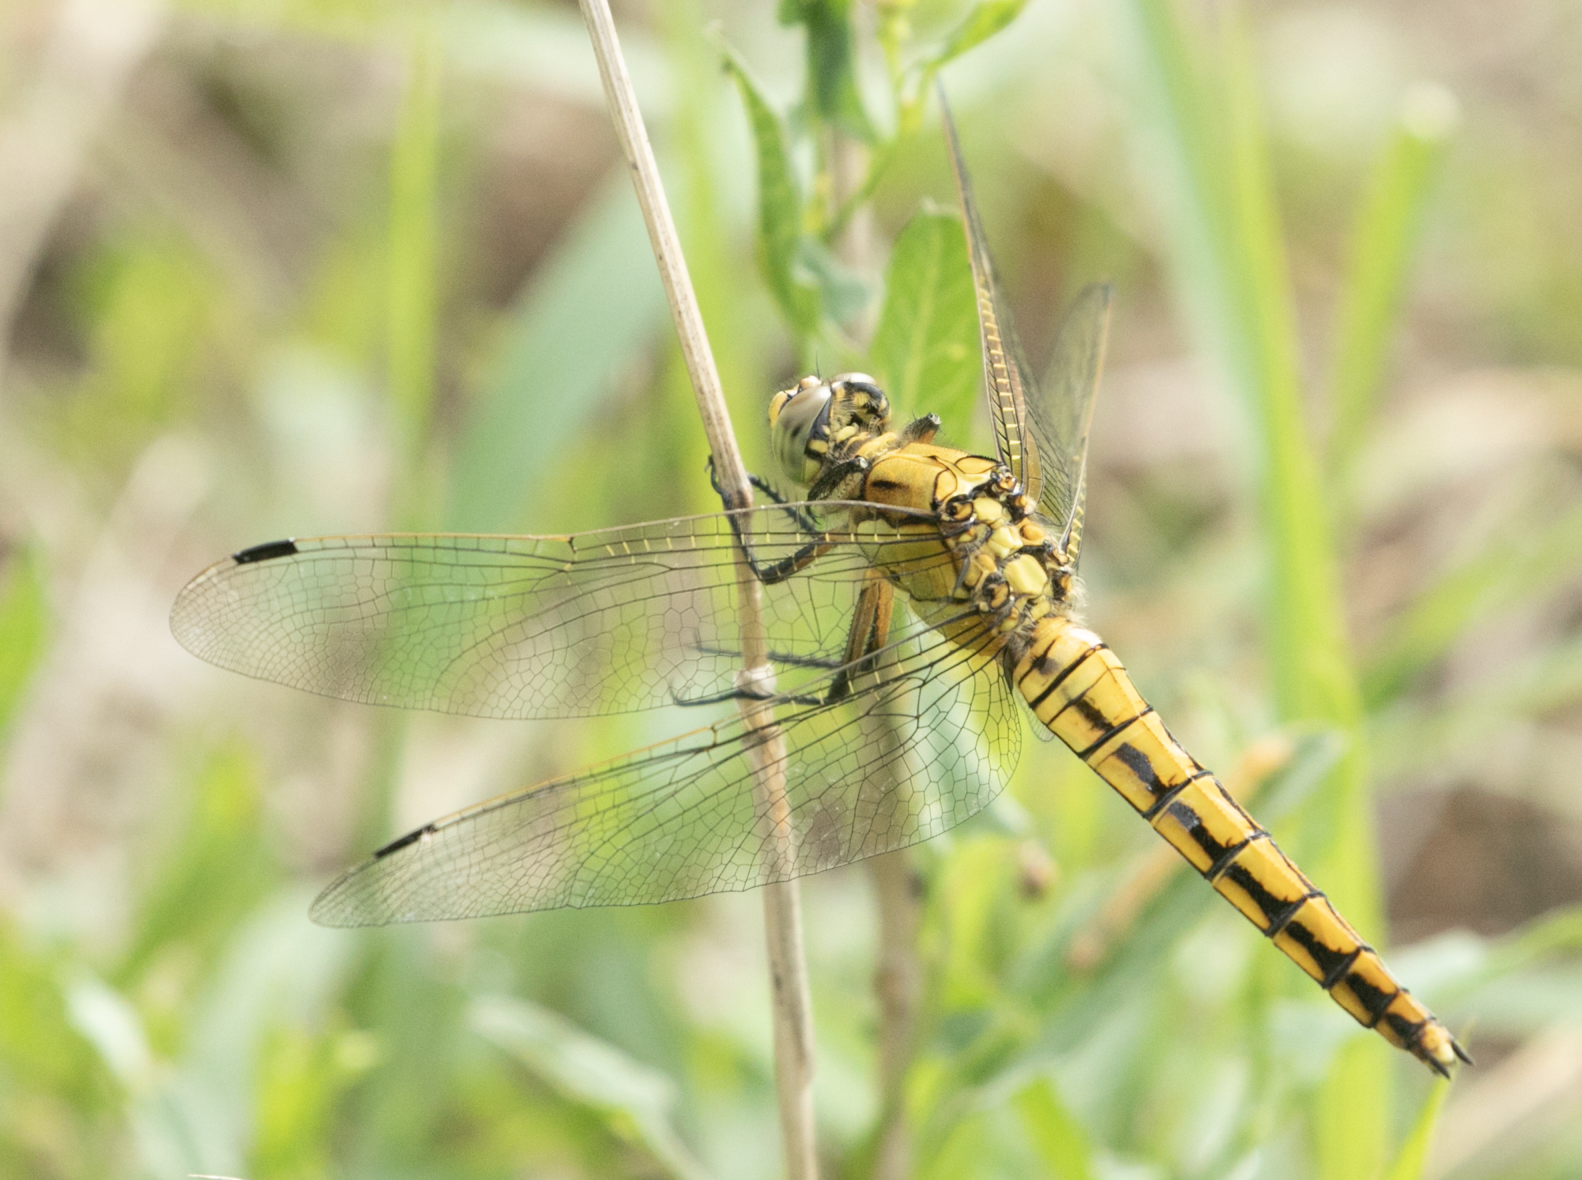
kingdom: Animalia
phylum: Arthropoda
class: Insecta
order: Odonata
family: Libellulidae
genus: Orthetrum
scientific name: Orthetrum cancellatum
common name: Black-tailed skimmer
